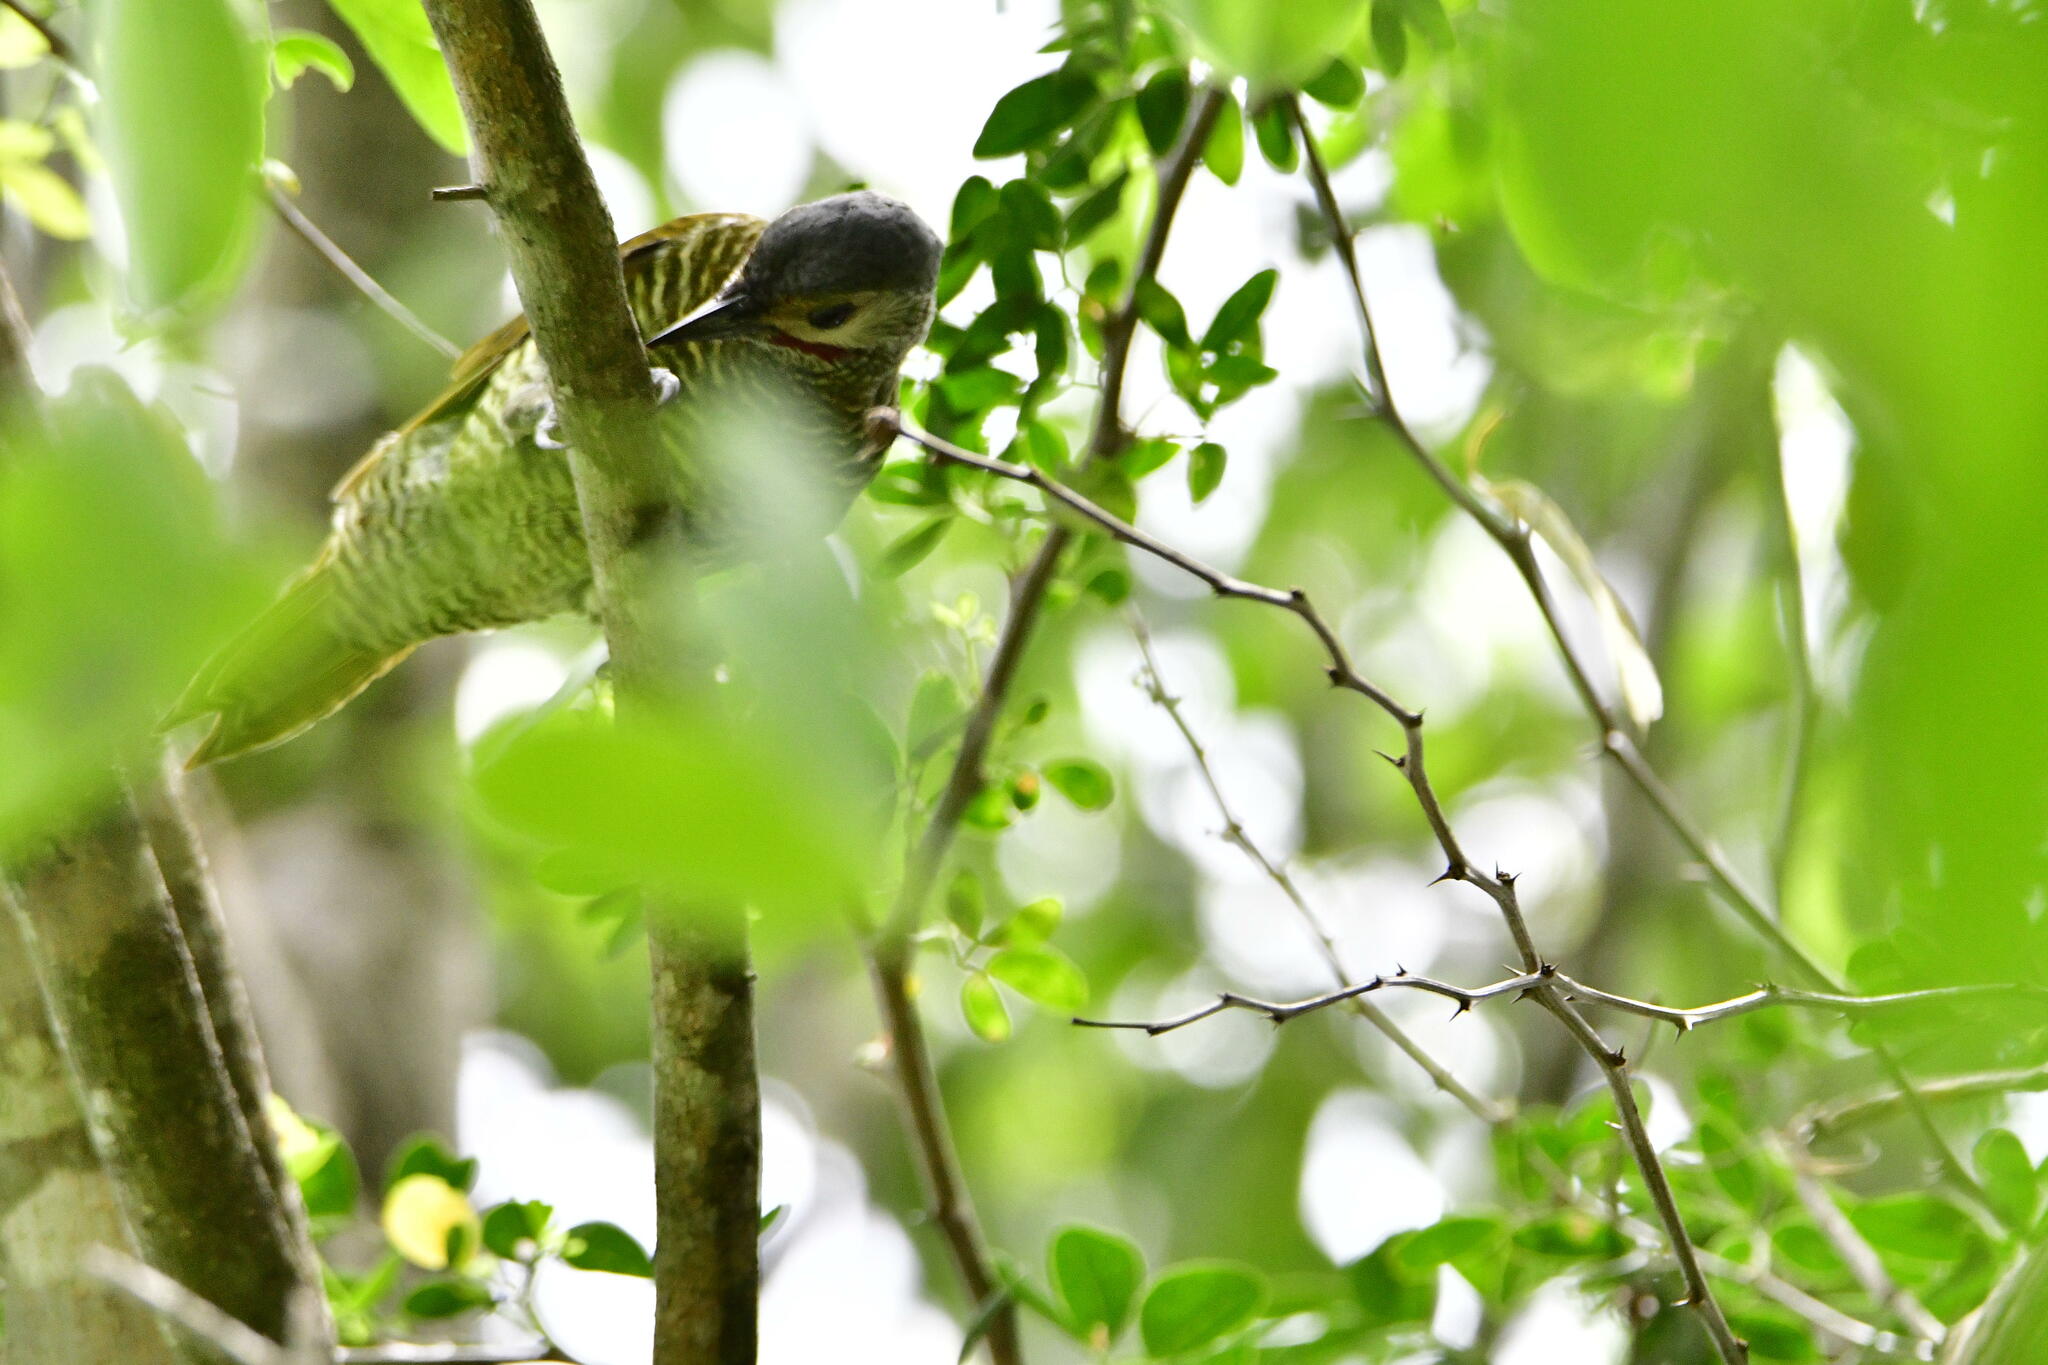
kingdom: Animalia
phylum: Chordata
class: Aves
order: Piciformes
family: Picidae
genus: Colaptes
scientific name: Colaptes auricularis
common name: Grey-crowned woodpecker
